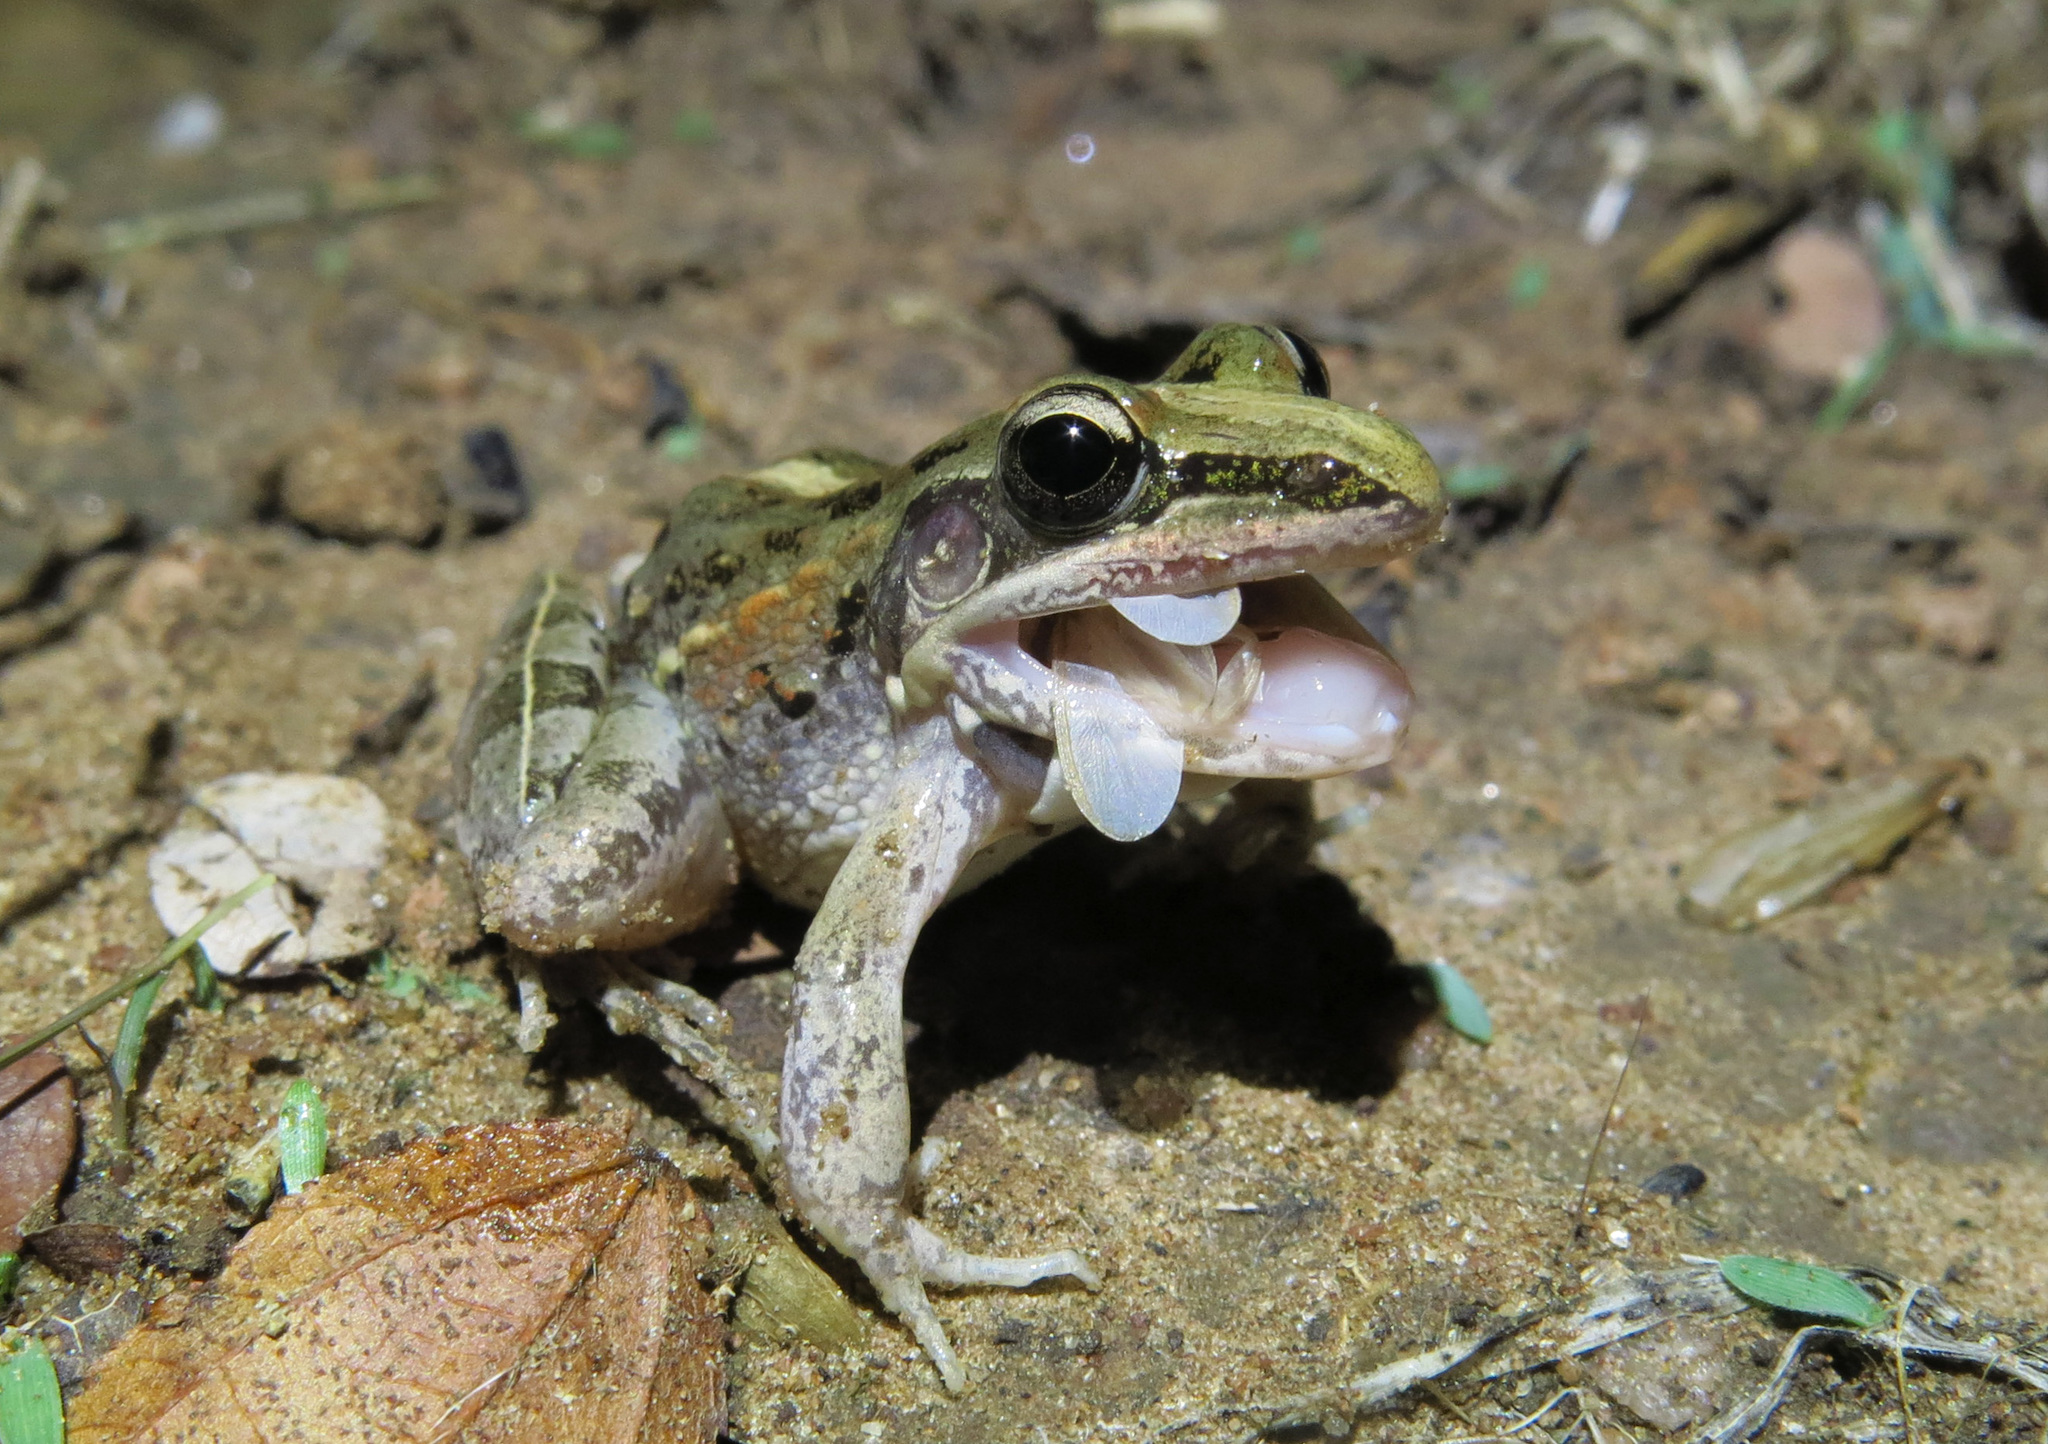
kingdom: Animalia
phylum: Chordata
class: Amphibia
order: Anura
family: Ptychadenidae
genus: Ptychadena
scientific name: Ptychadena mossambica
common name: Mozambique ridged frog
